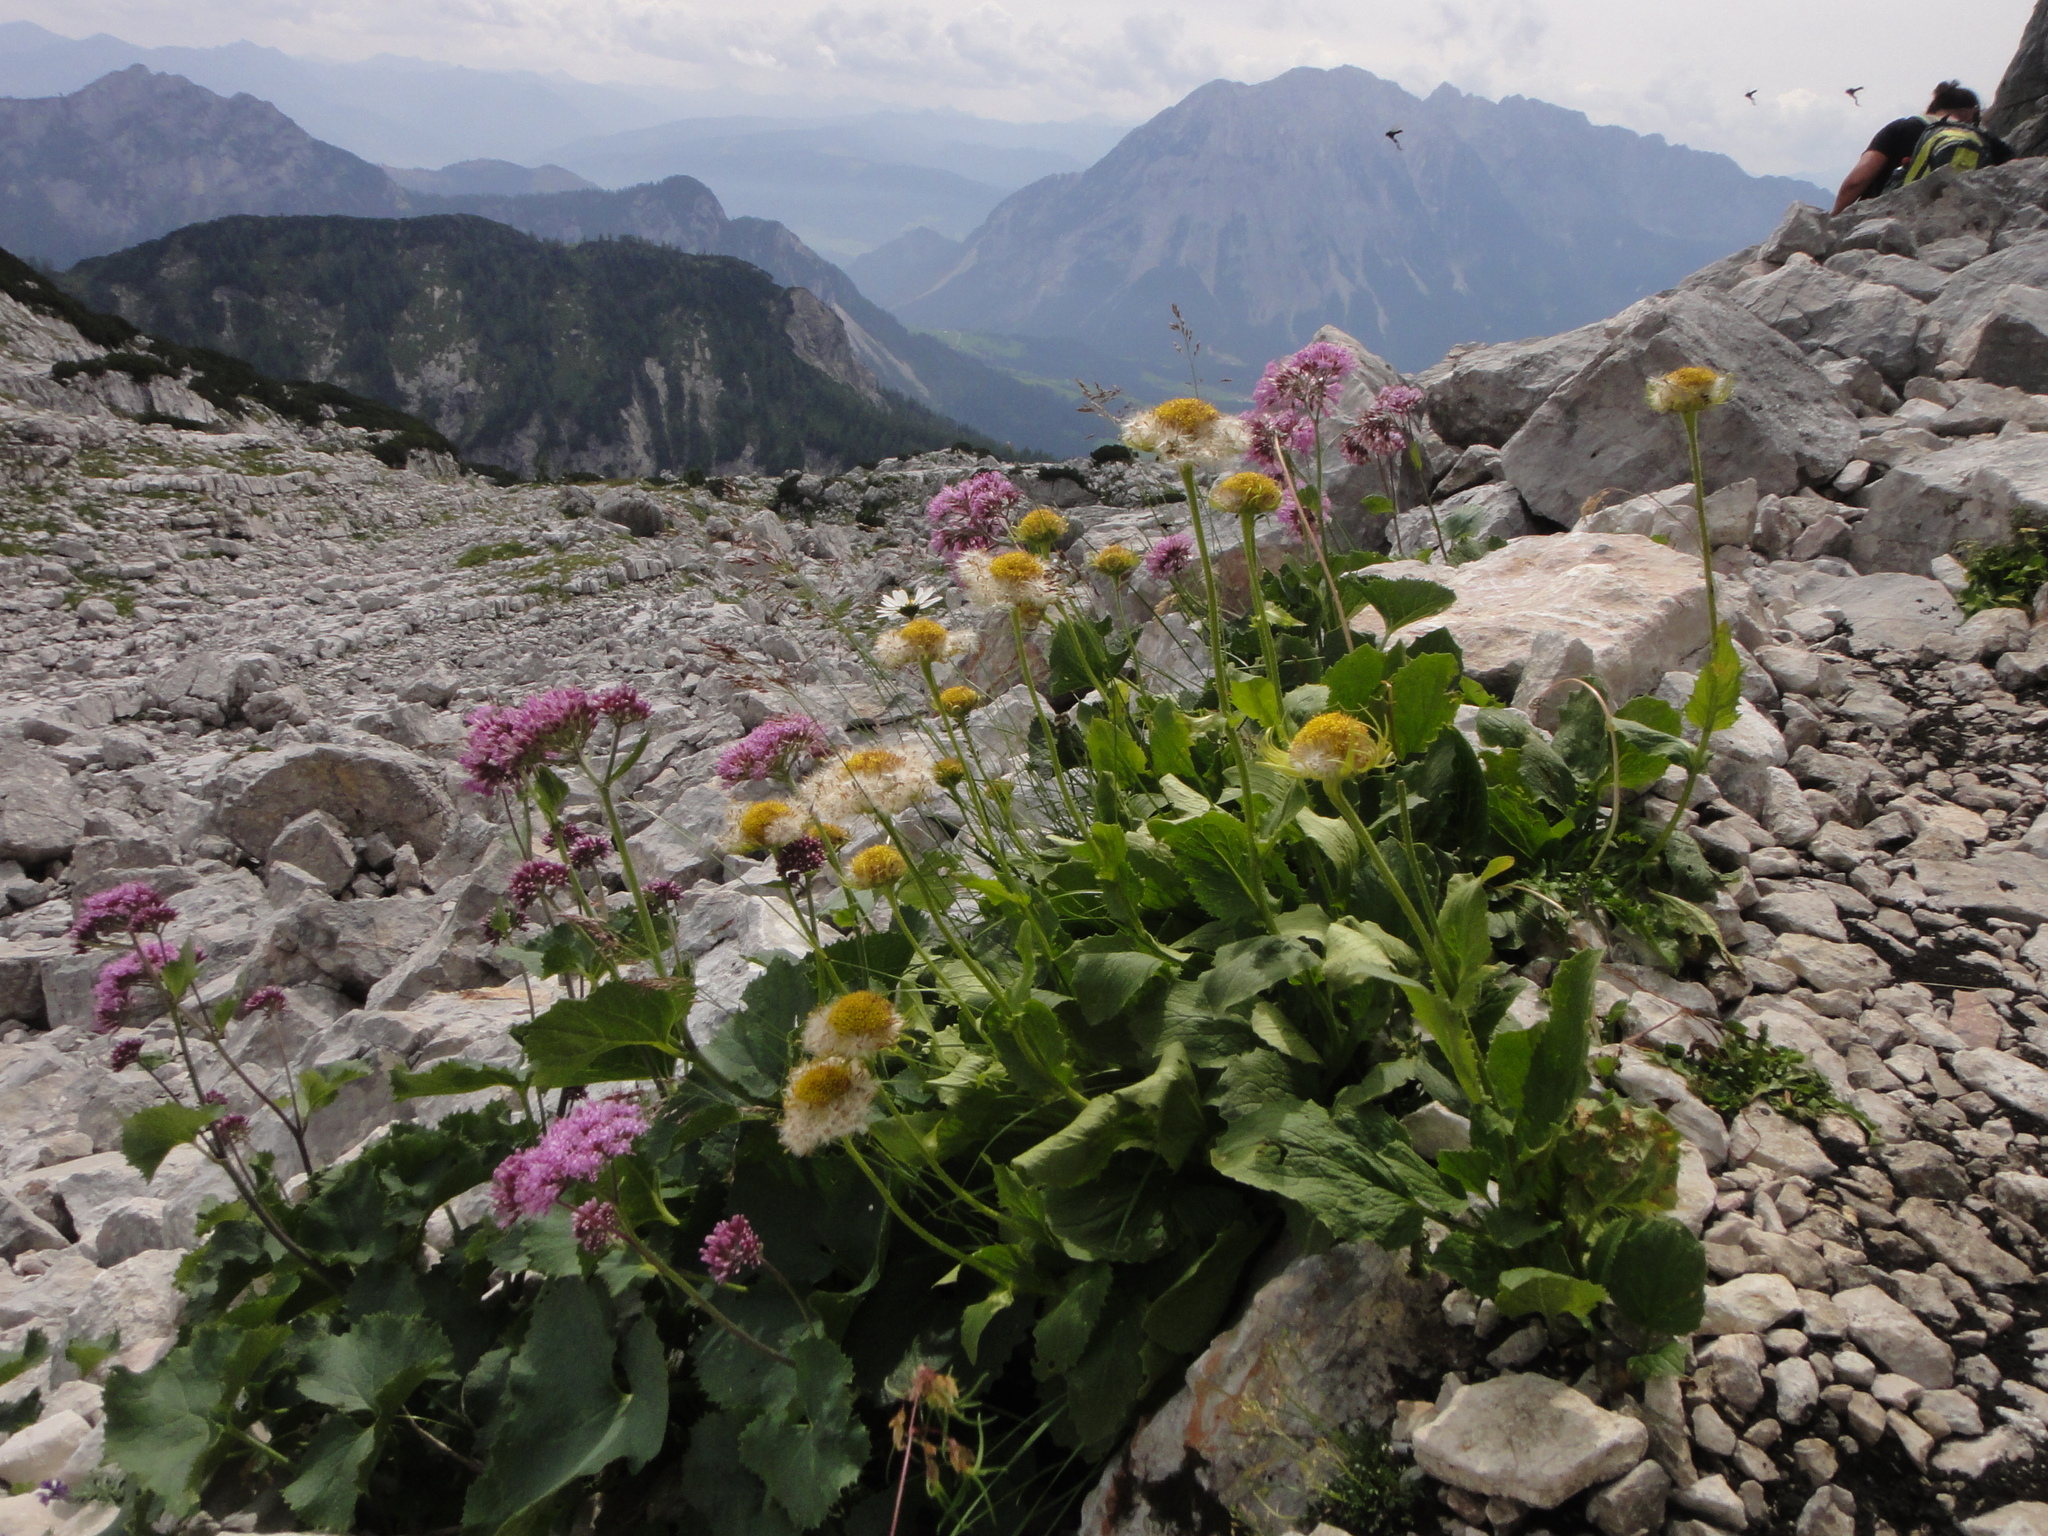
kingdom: Plantae
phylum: Tracheophyta
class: Magnoliopsida
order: Asterales
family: Asteraceae
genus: Doronicum
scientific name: Doronicum grandiflorum
